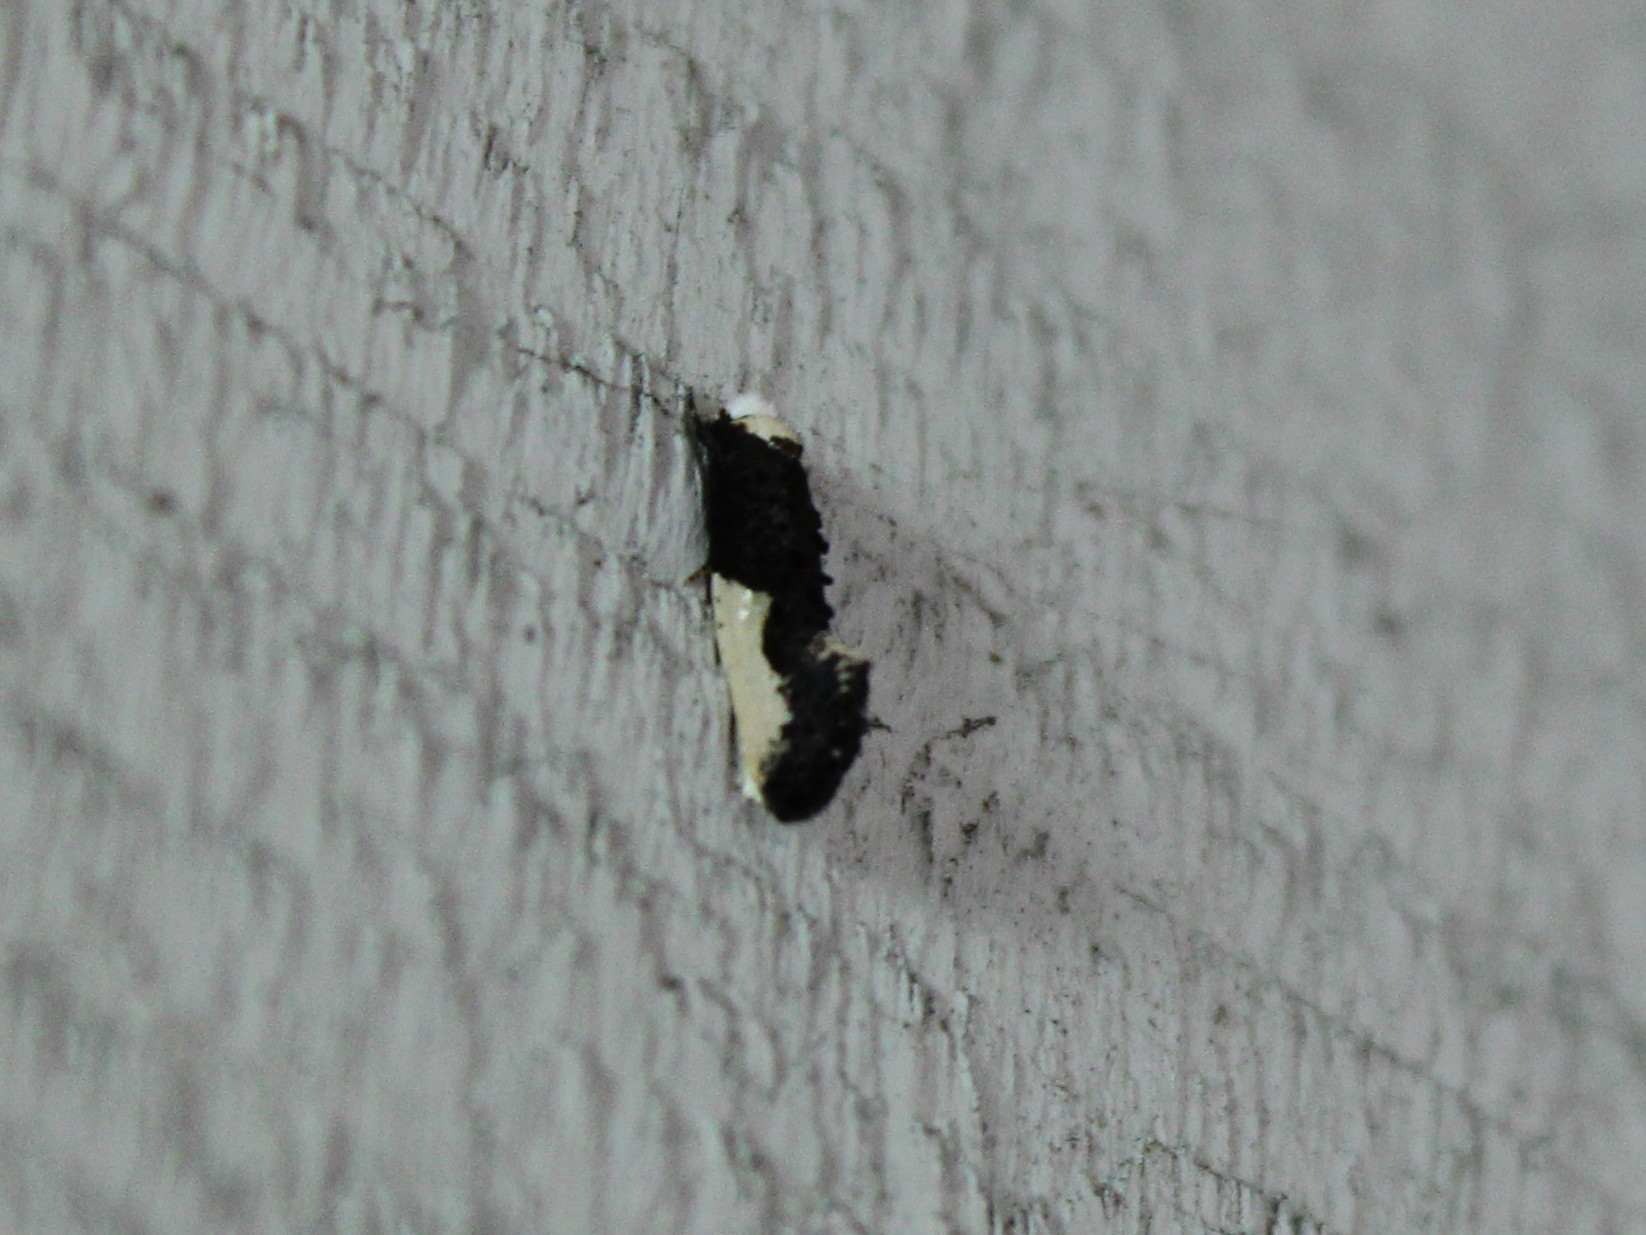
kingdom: Animalia
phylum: Arthropoda
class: Insecta
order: Lepidoptera
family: Tineidae
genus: Monopis
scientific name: Monopis monachella
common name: Moth
